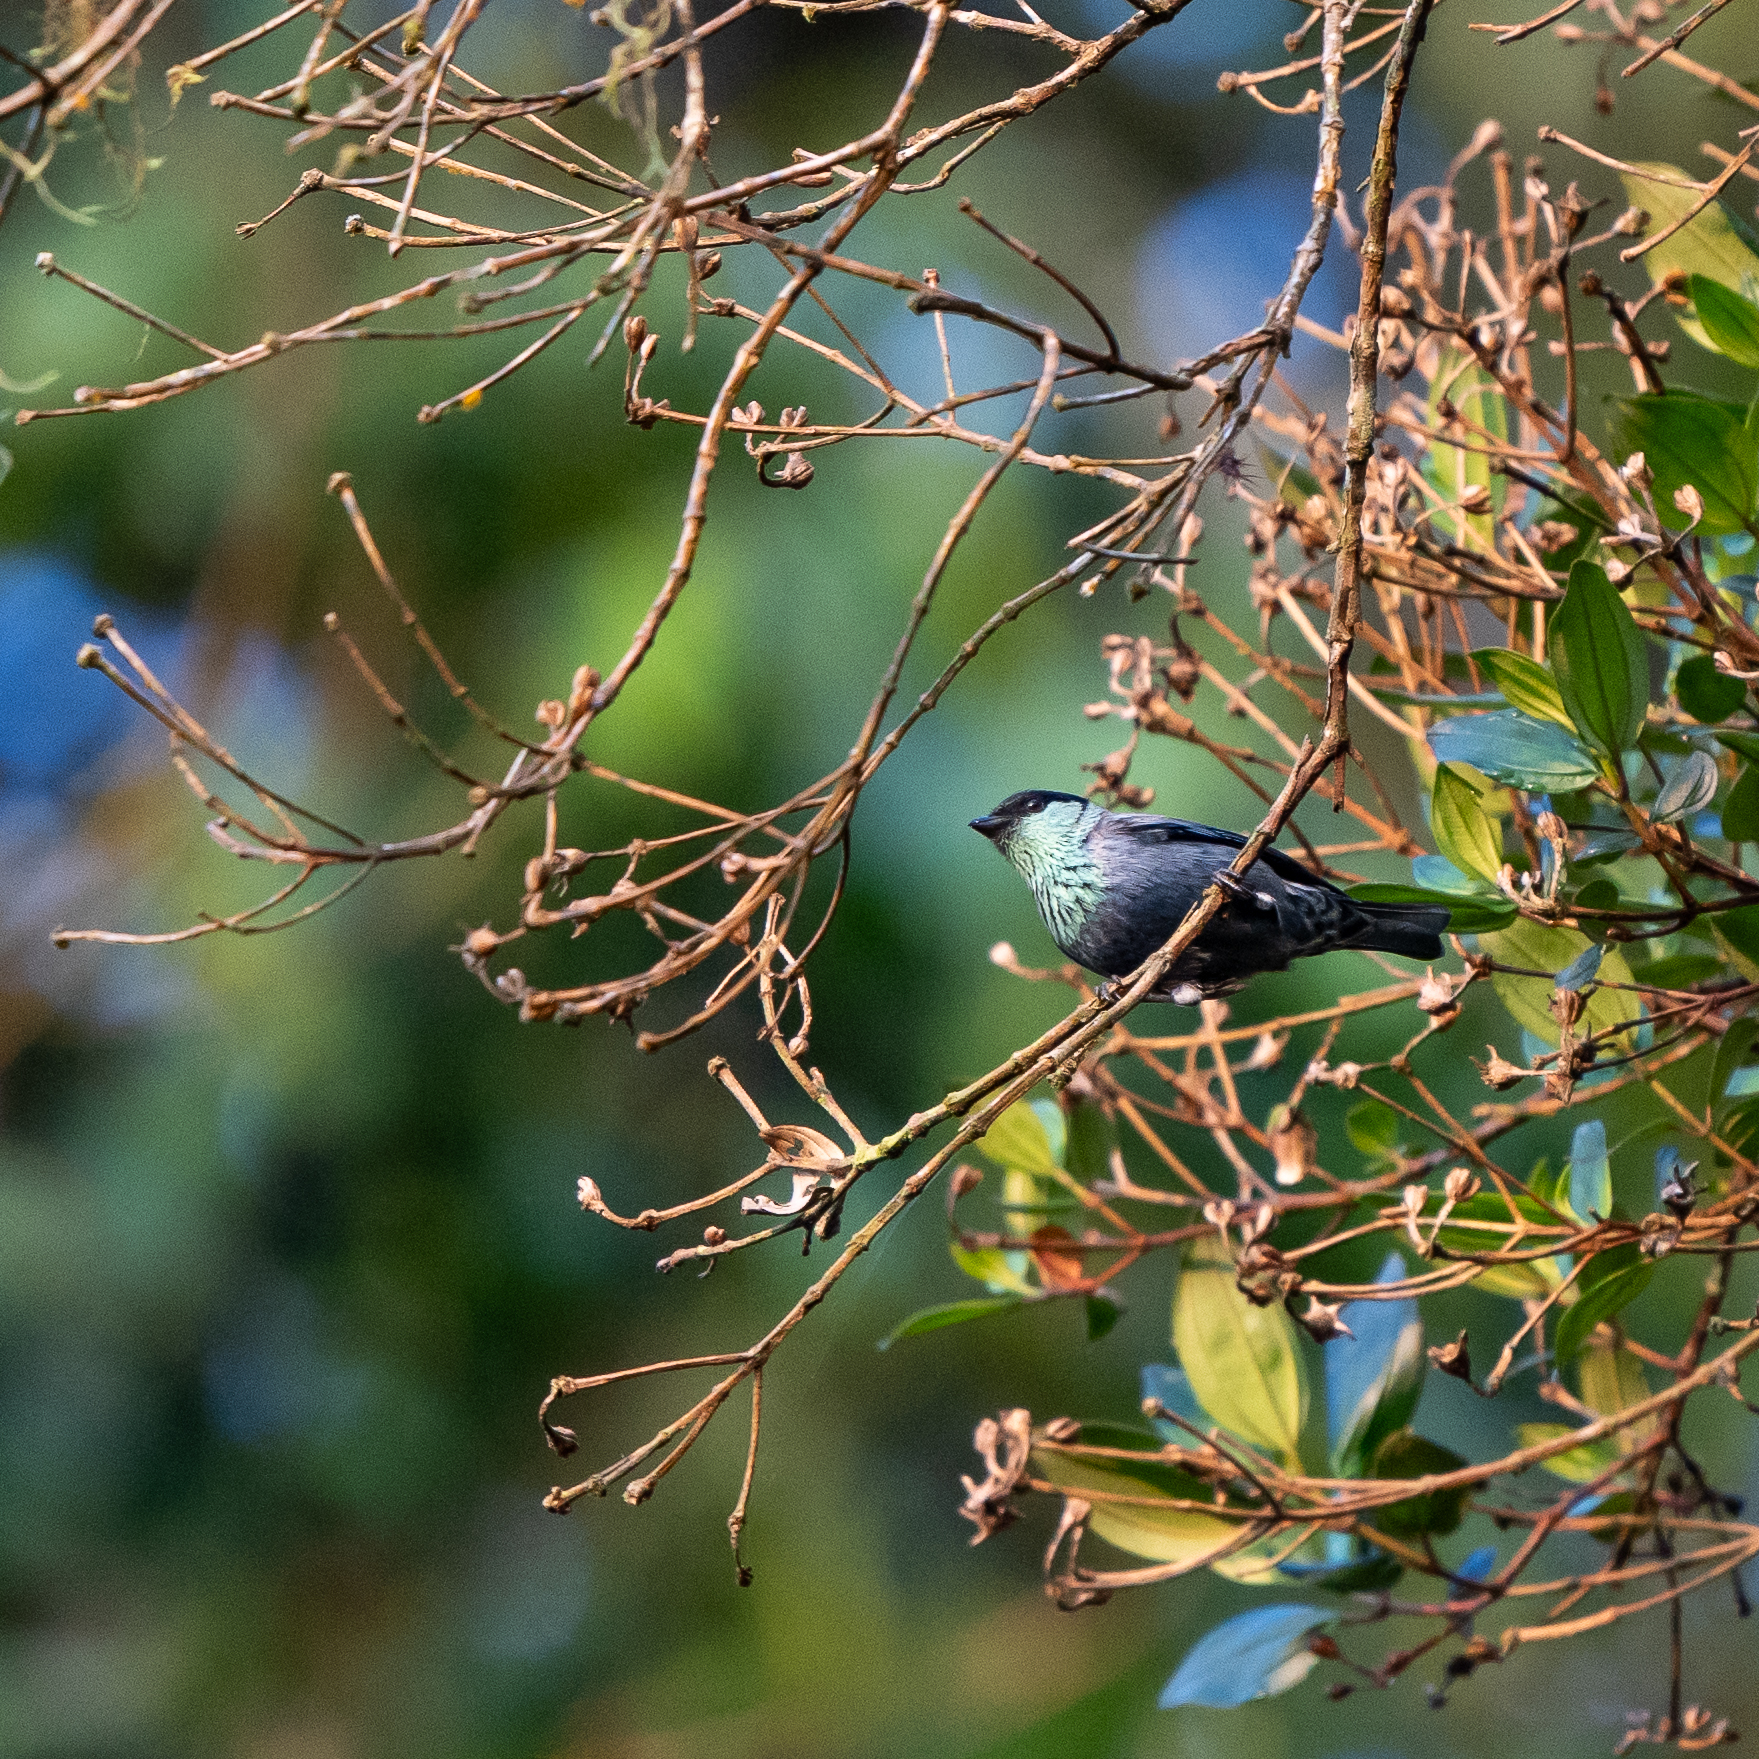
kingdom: Animalia
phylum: Chordata
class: Aves
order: Passeriformes
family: Thraupidae
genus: Stilpnia
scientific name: Stilpnia heinei
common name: Black-capped tanager
